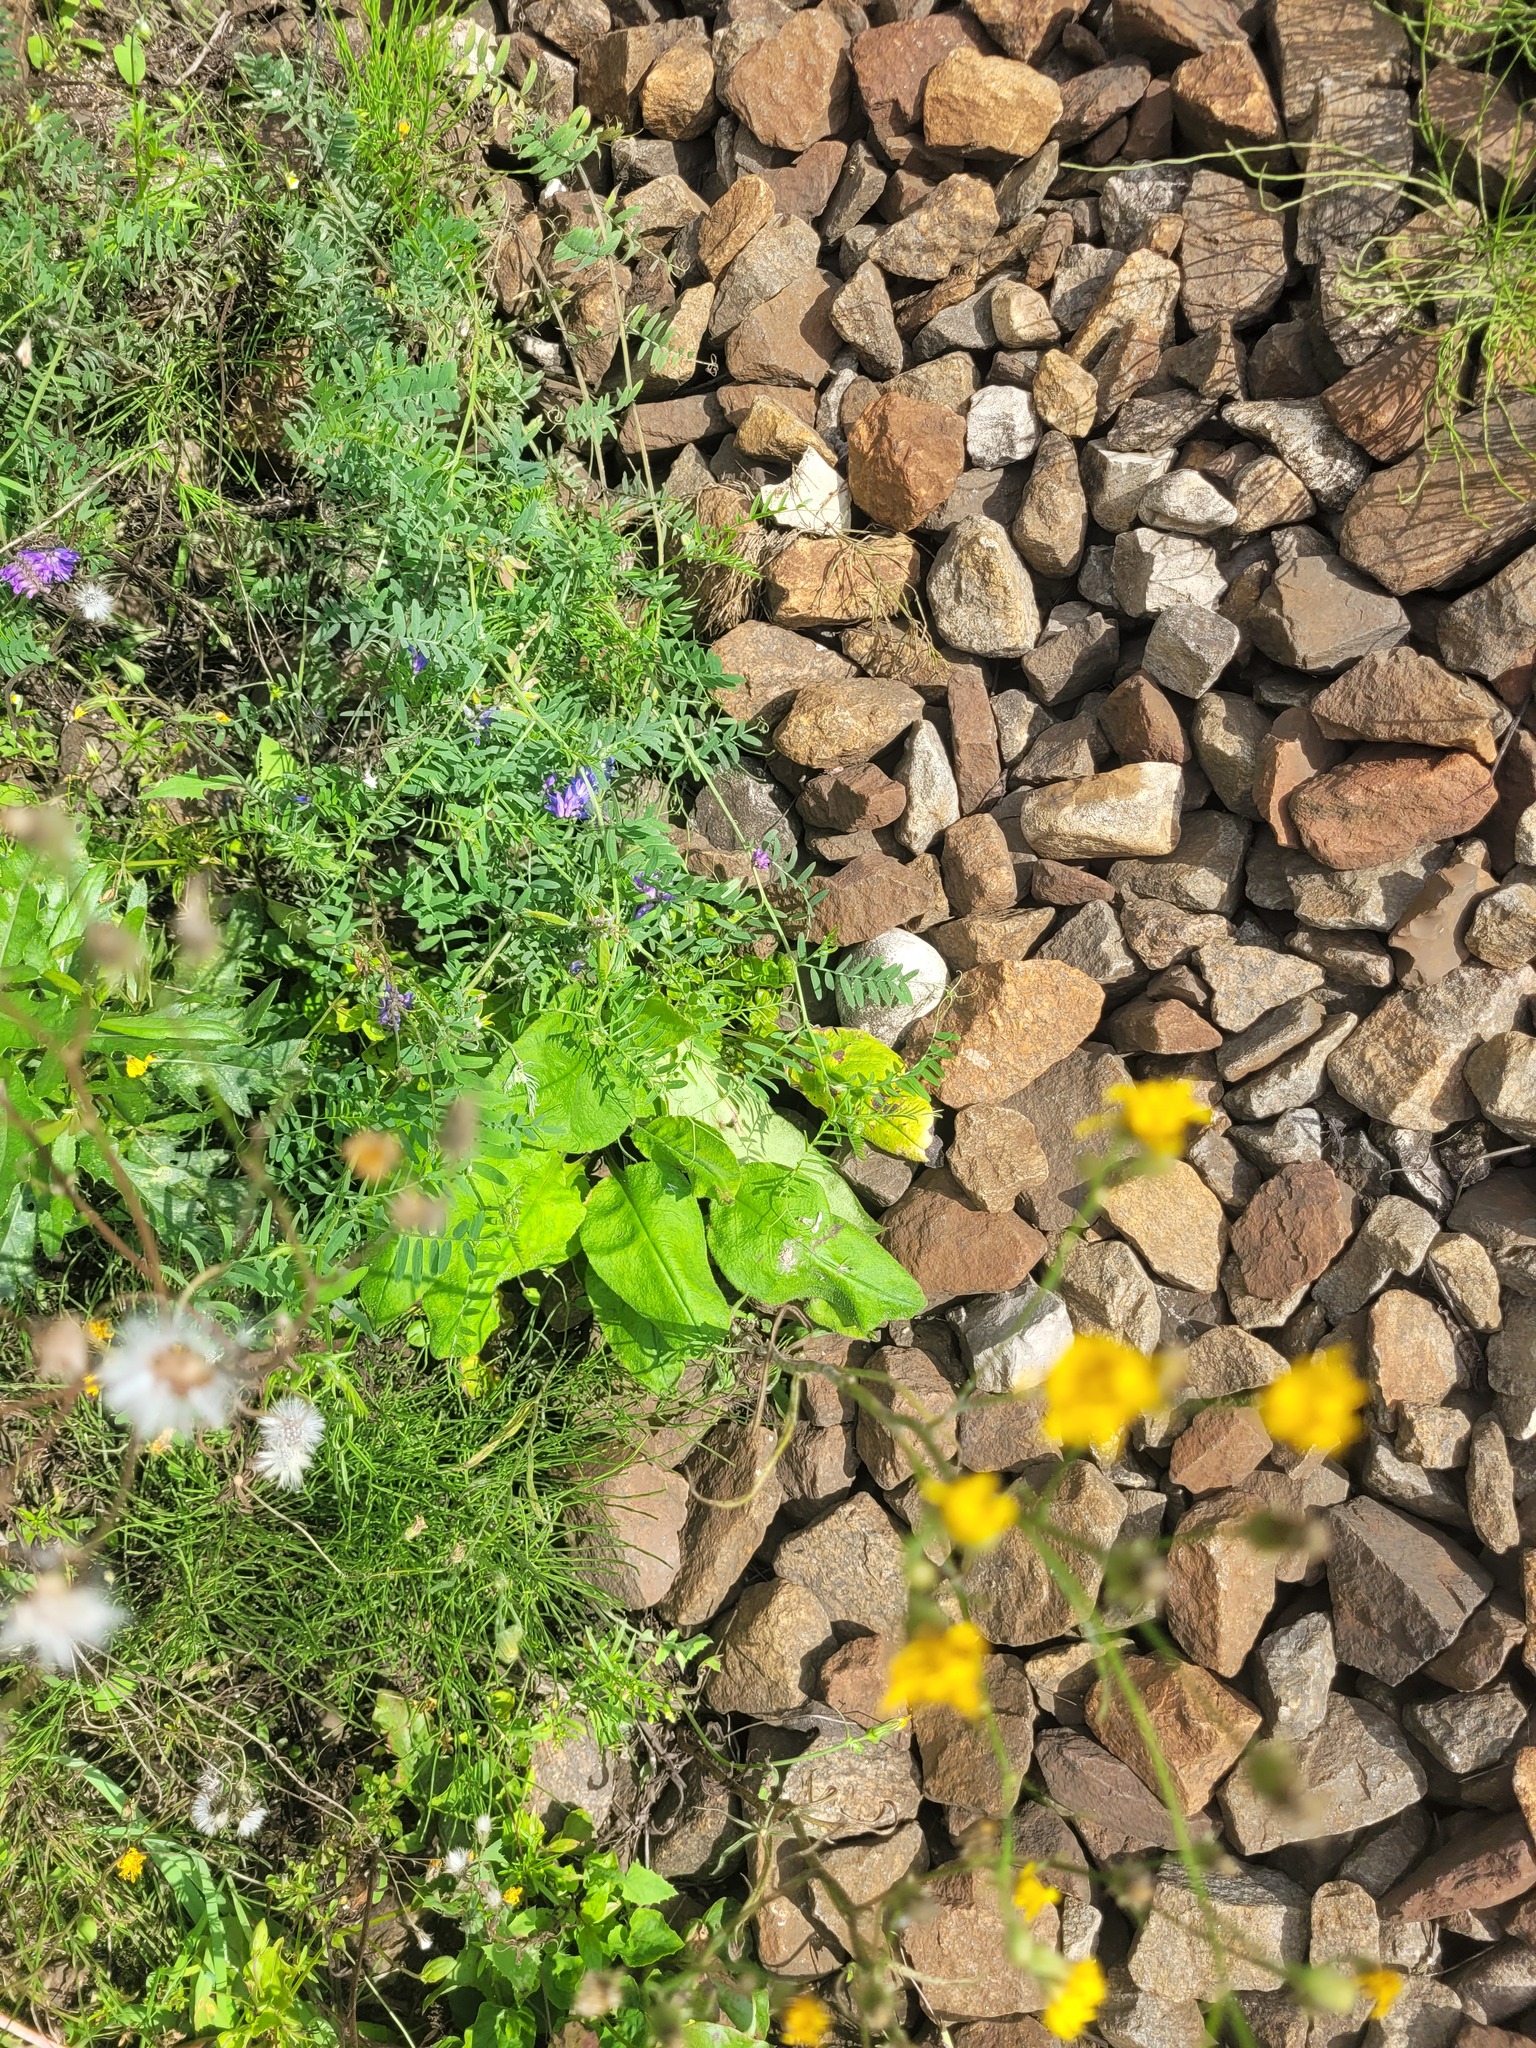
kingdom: Plantae
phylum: Tracheophyta
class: Magnoliopsida
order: Boraginales
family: Boraginaceae
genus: Pulmonaria
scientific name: Pulmonaria obscura
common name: Suffolk lungwort
